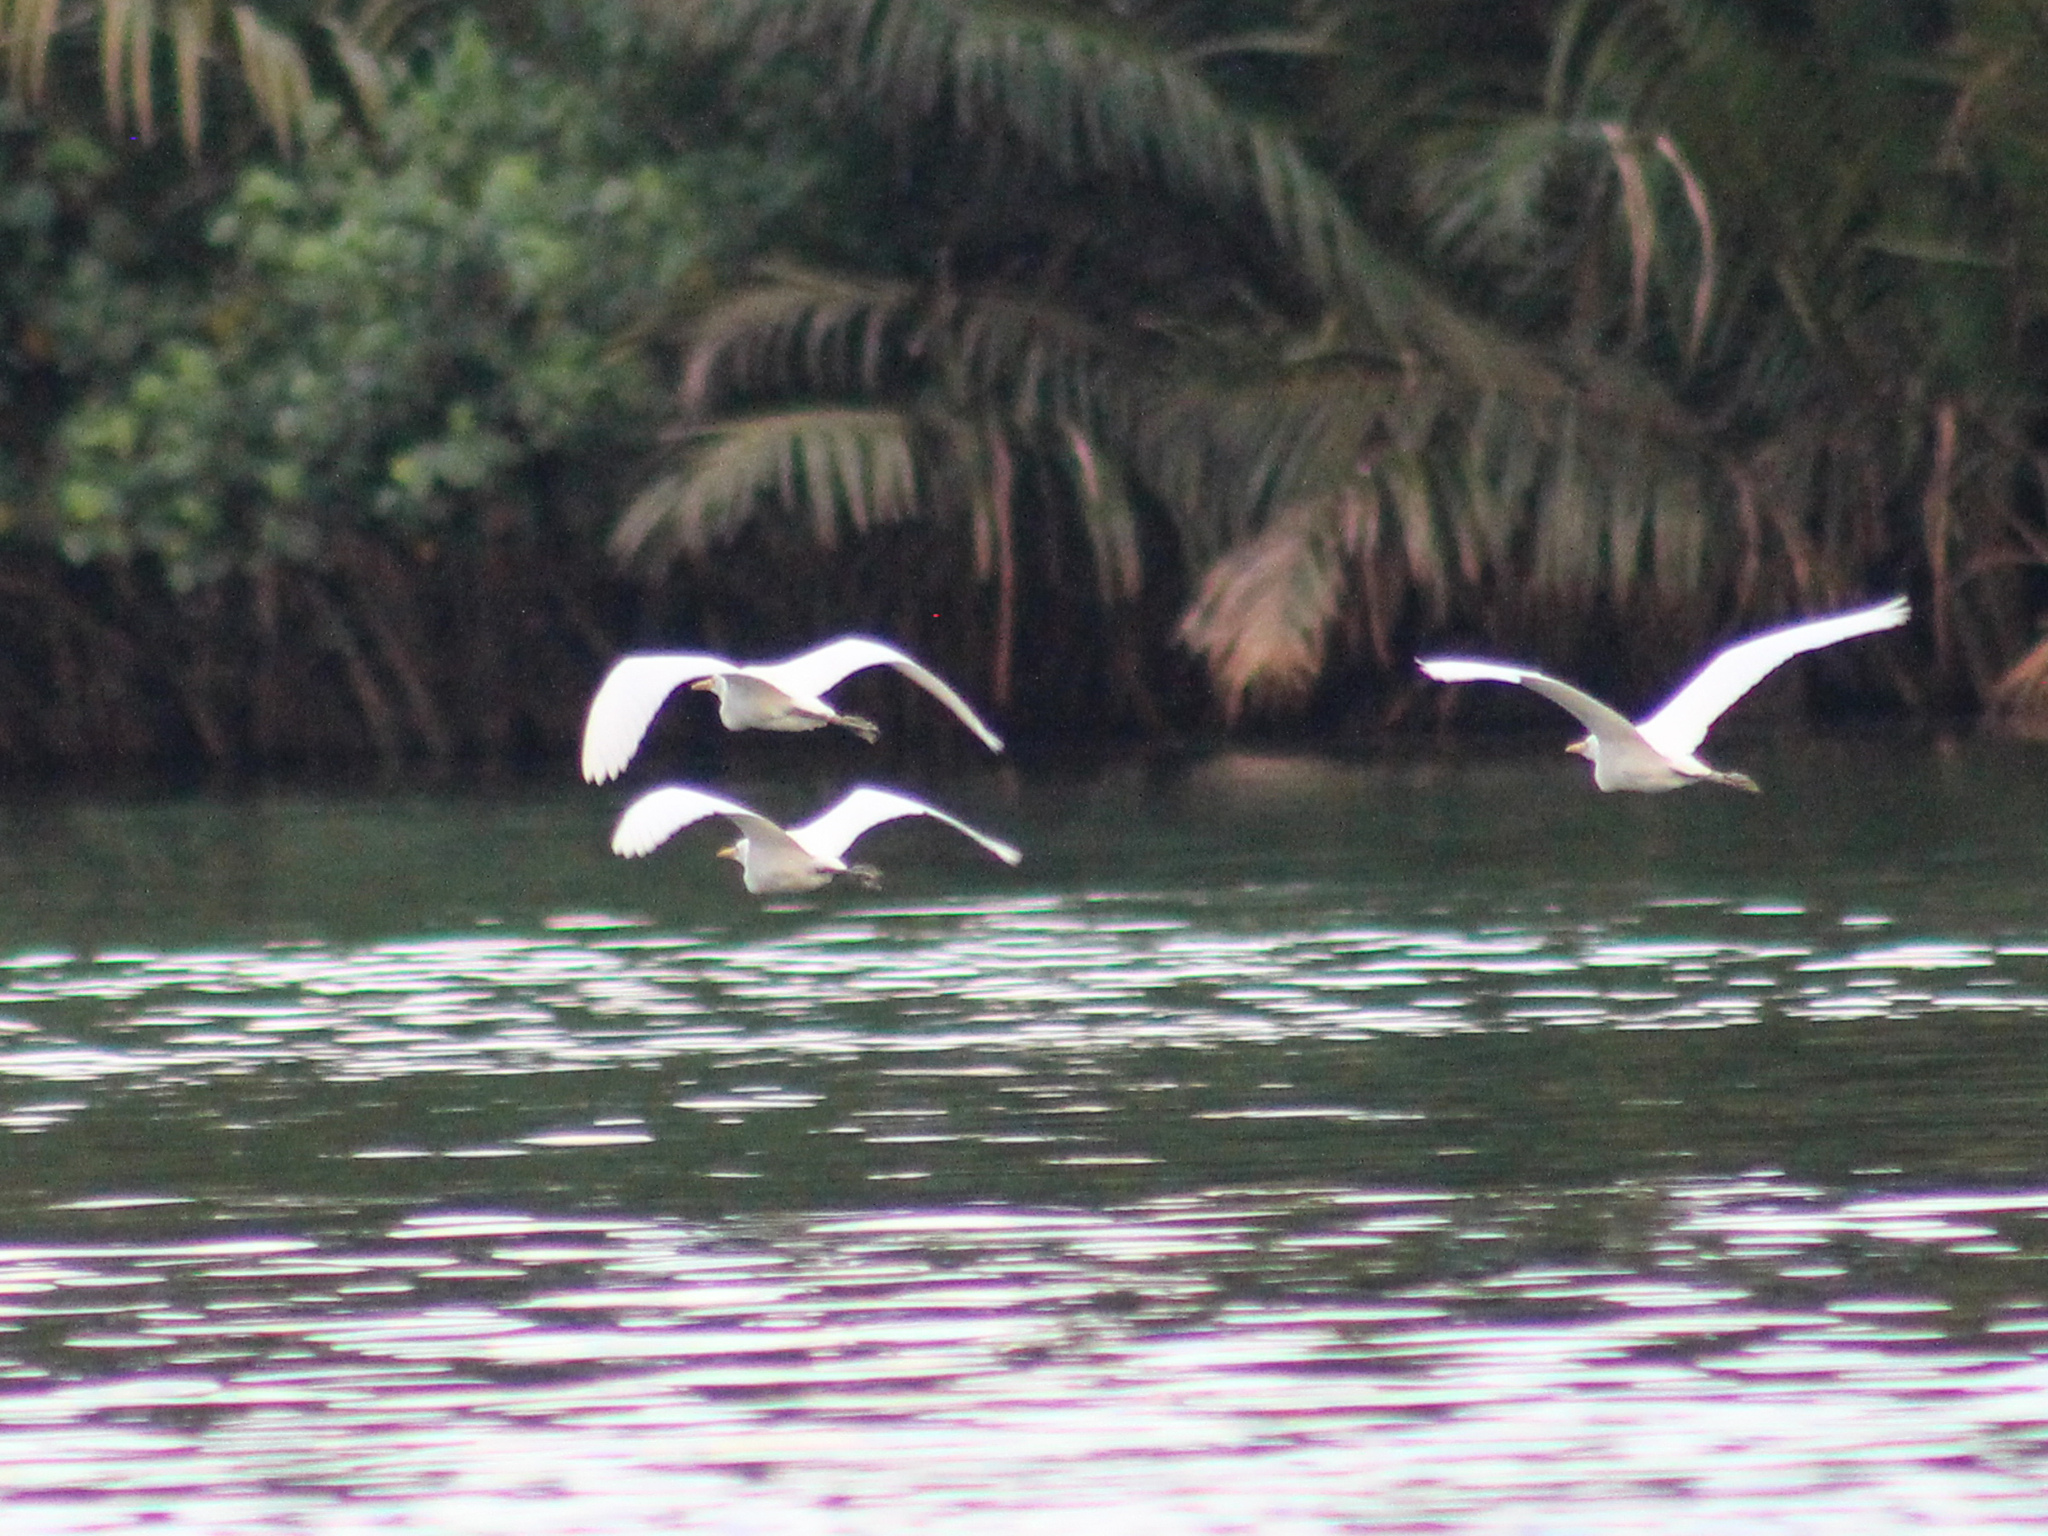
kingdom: Animalia
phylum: Chordata
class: Aves
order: Pelecaniformes
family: Ardeidae
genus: Bubulcus
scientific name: Bubulcus coromandus
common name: Eastern cattle egret
